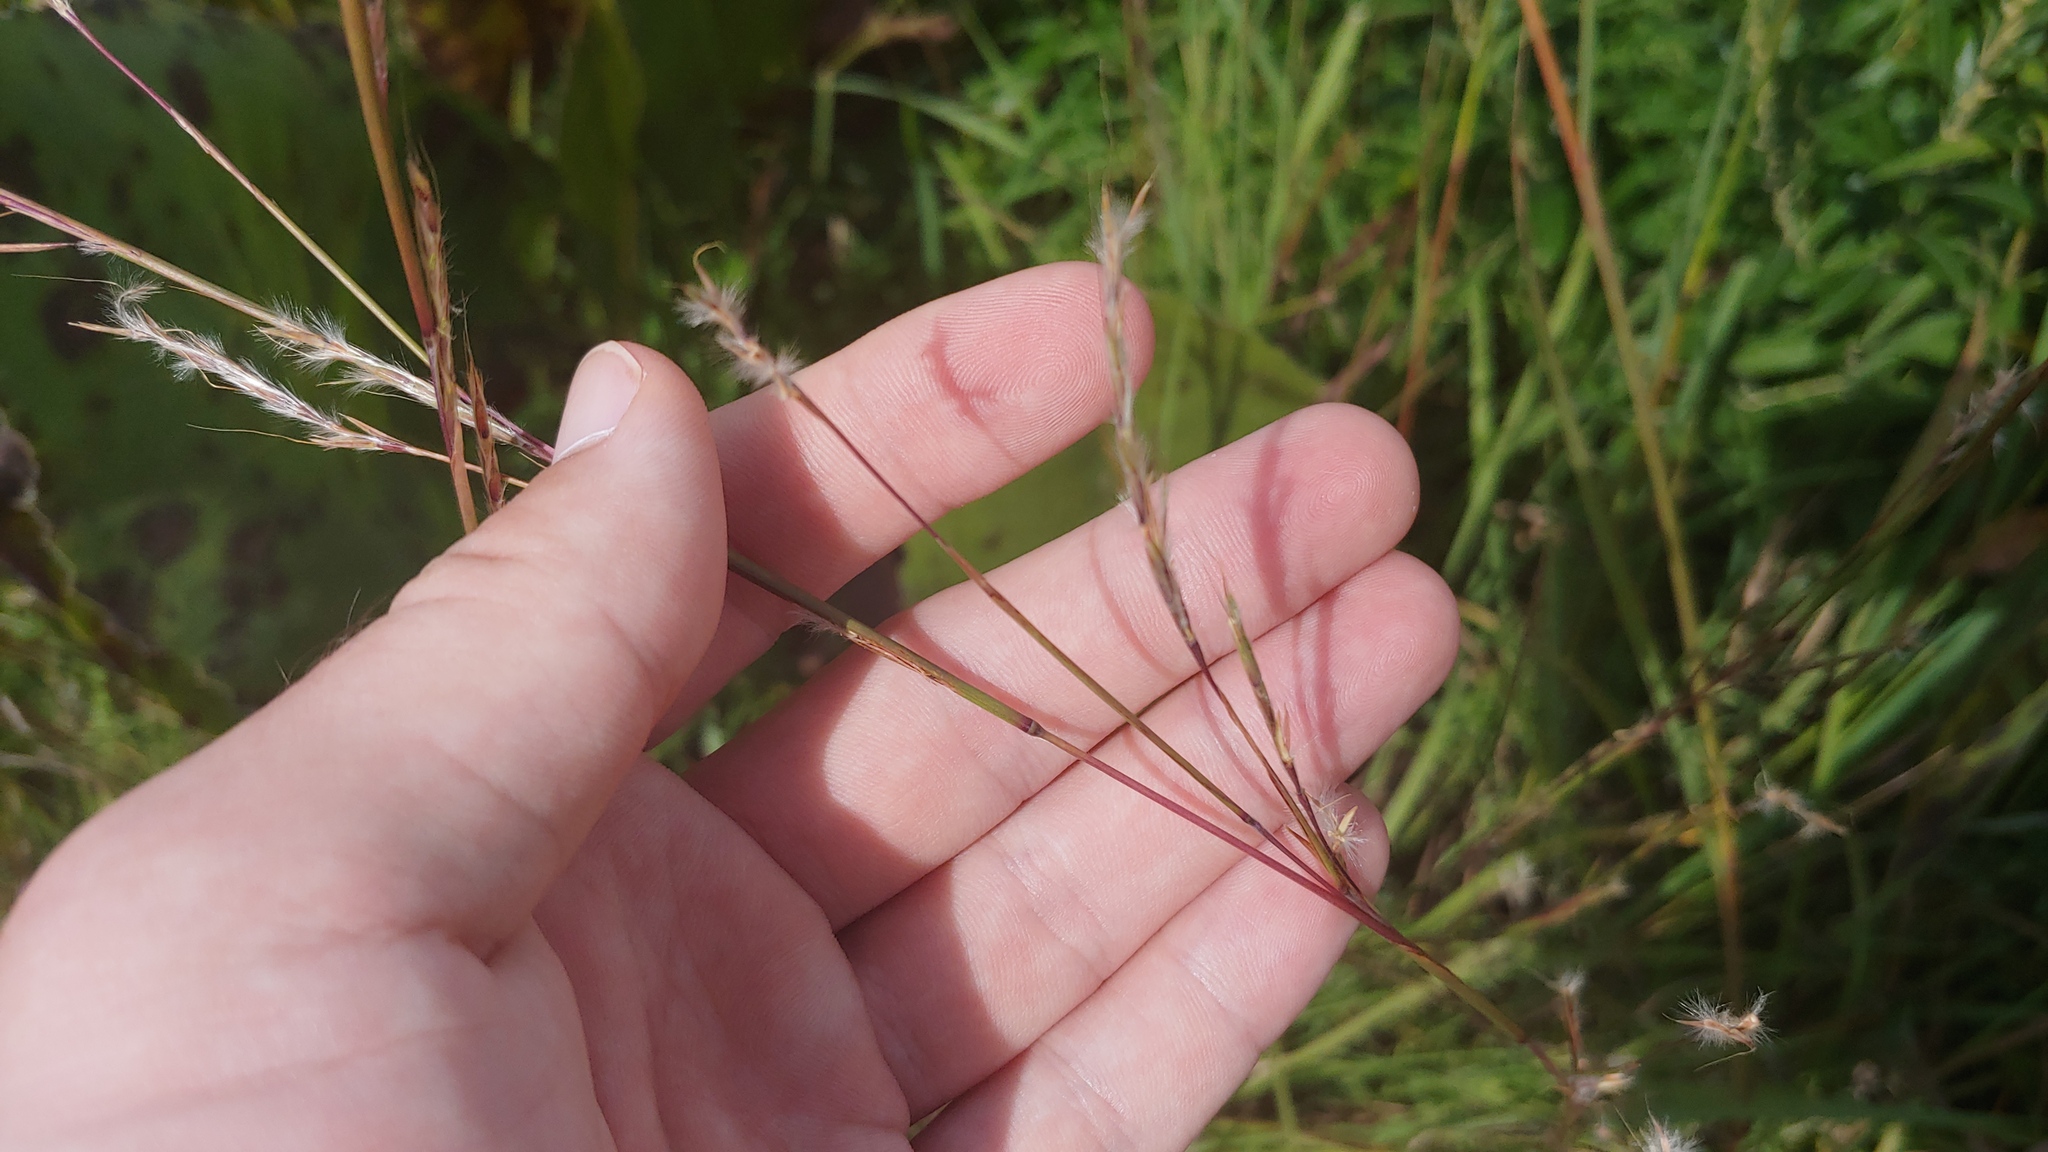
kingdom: Plantae
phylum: Tracheophyta
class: Liliopsida
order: Poales
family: Poaceae
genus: Schizachyrium
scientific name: Schizachyrium scoparium
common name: Little bluestem
